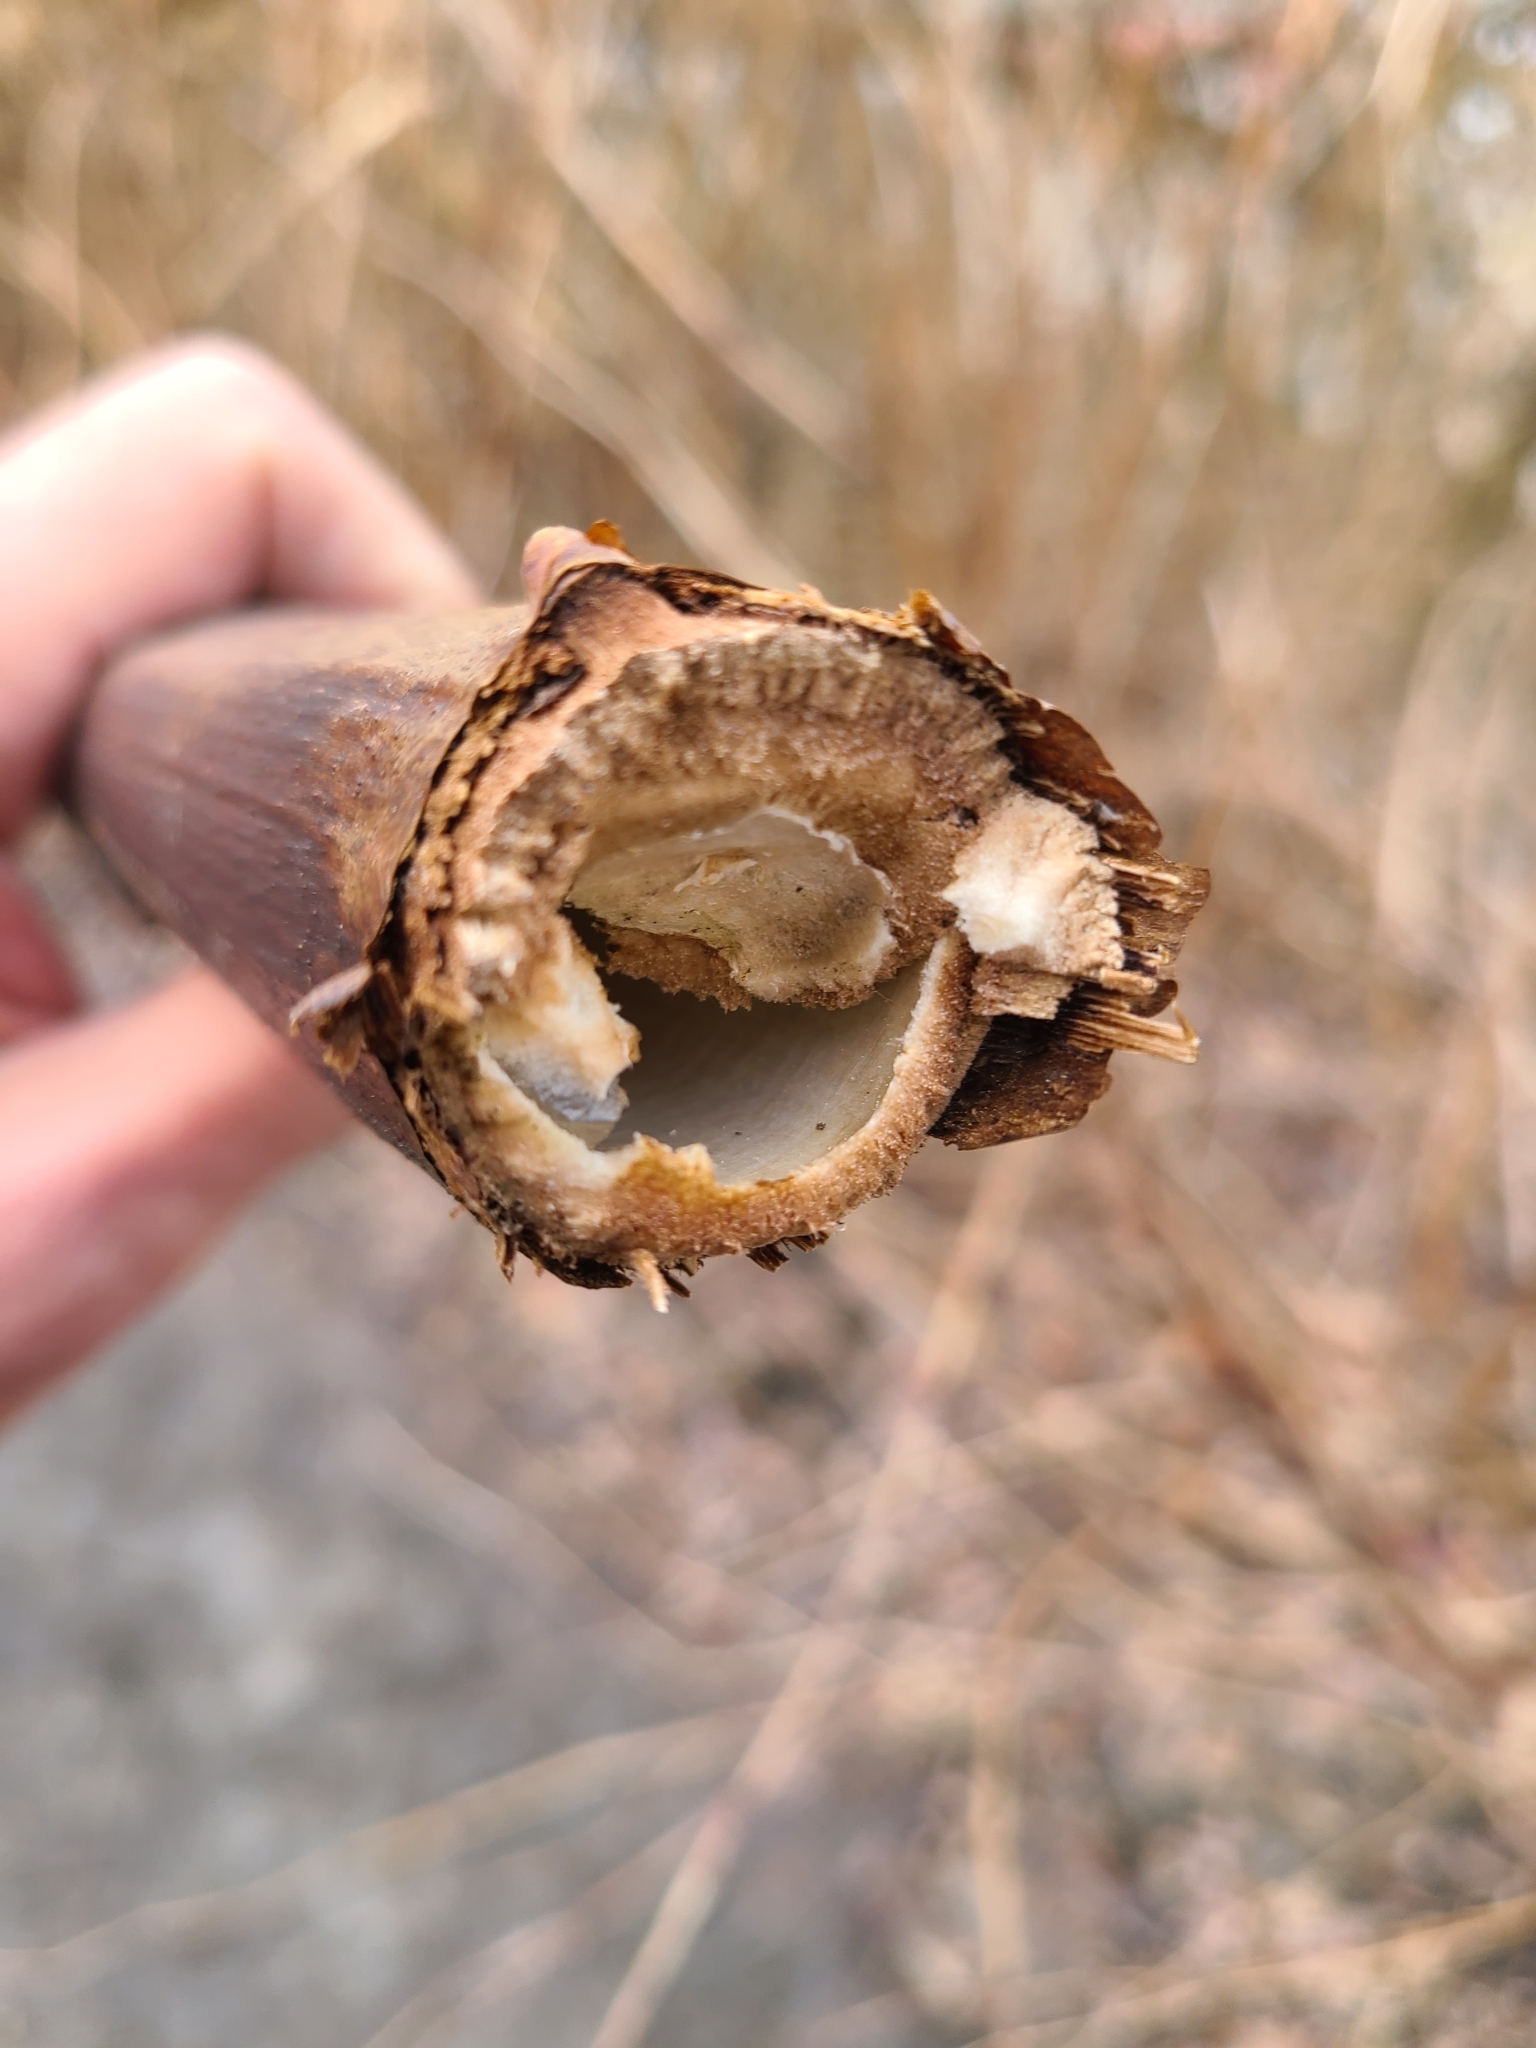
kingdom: Plantae
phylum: Tracheophyta
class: Magnoliopsida
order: Caryophyllales
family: Polygonaceae
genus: Reynoutria
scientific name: Reynoutria japonica
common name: Japanese knotweed
